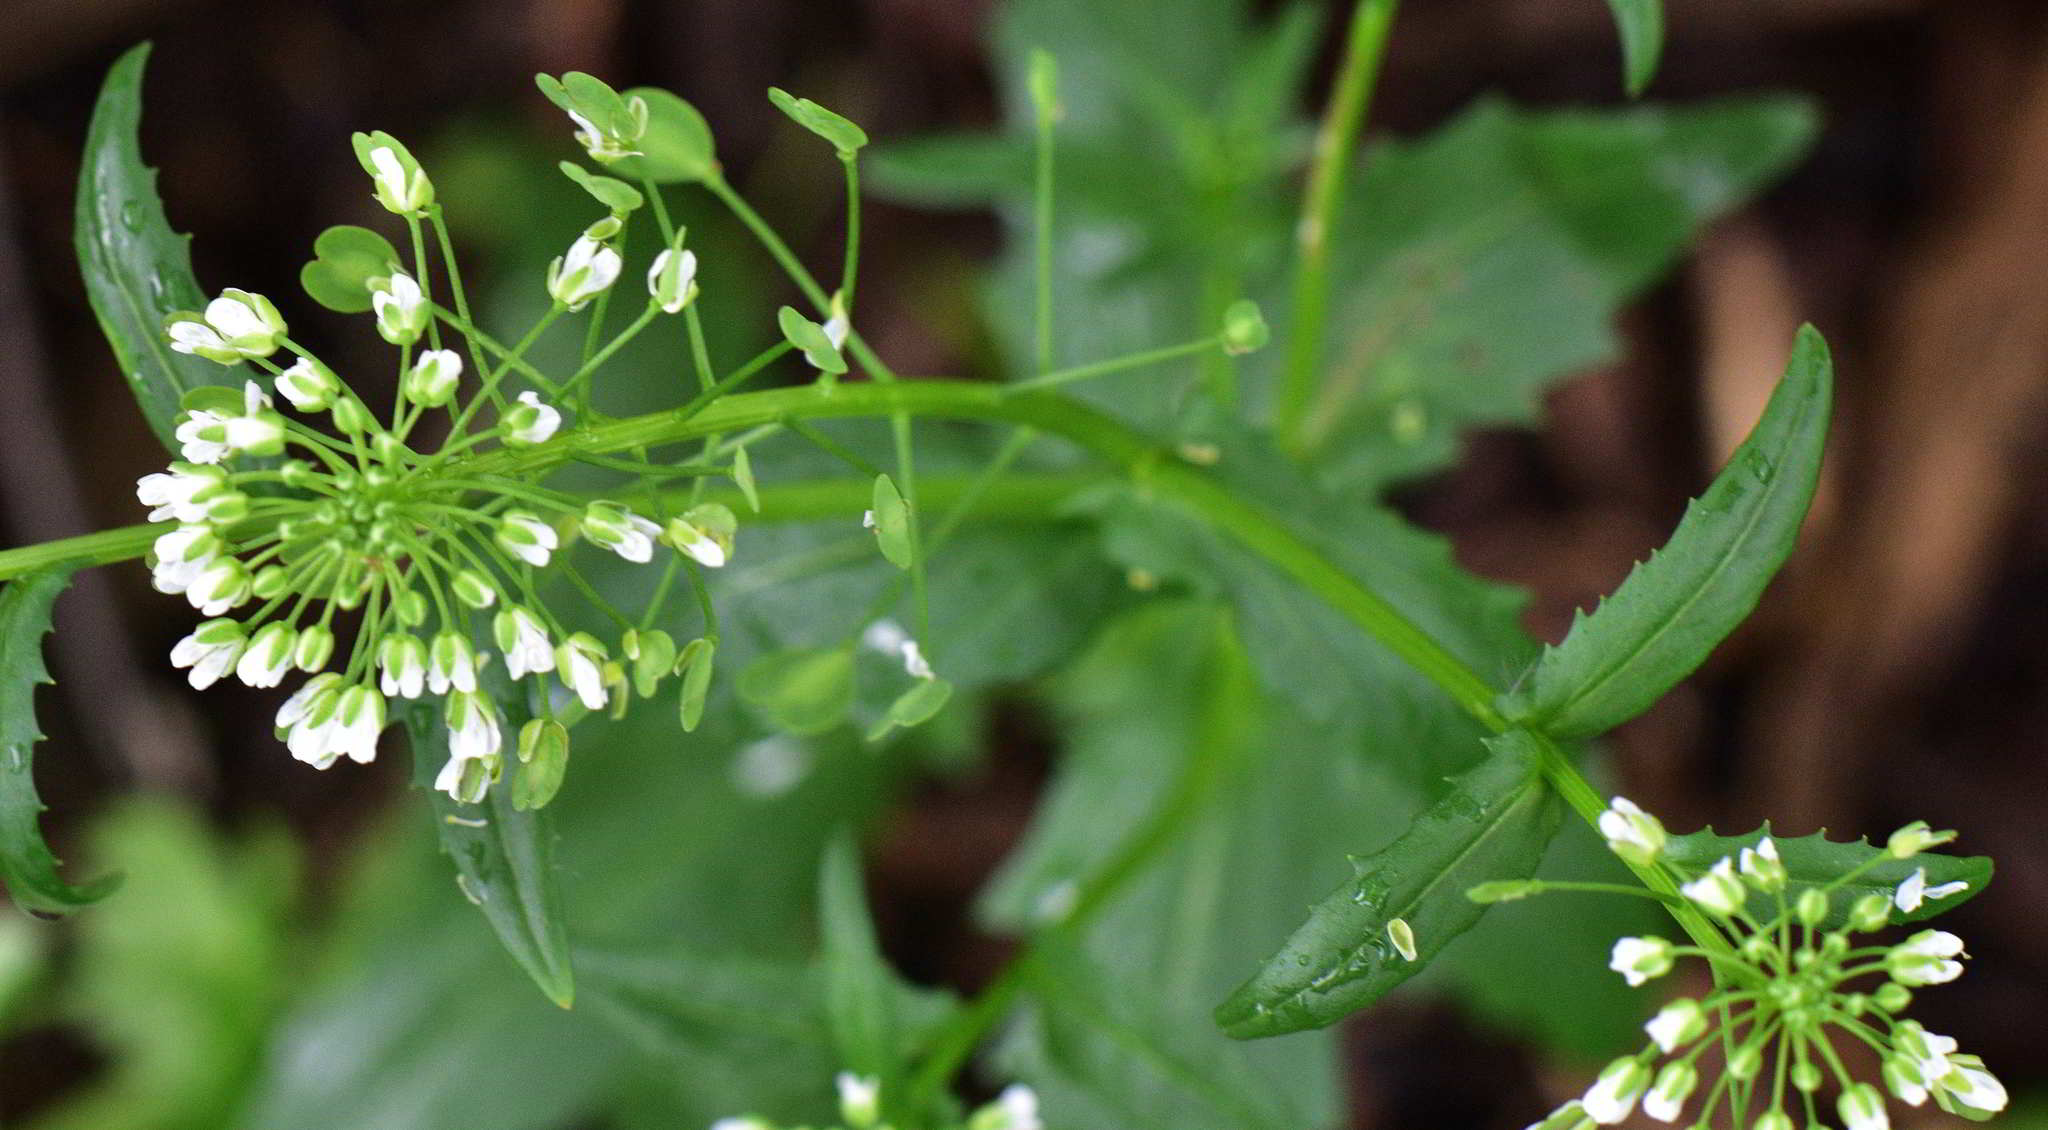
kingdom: Plantae
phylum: Tracheophyta
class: Magnoliopsida
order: Brassicales
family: Brassicaceae
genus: Thlaspi
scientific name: Thlaspi arvense
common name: Field pennycress
